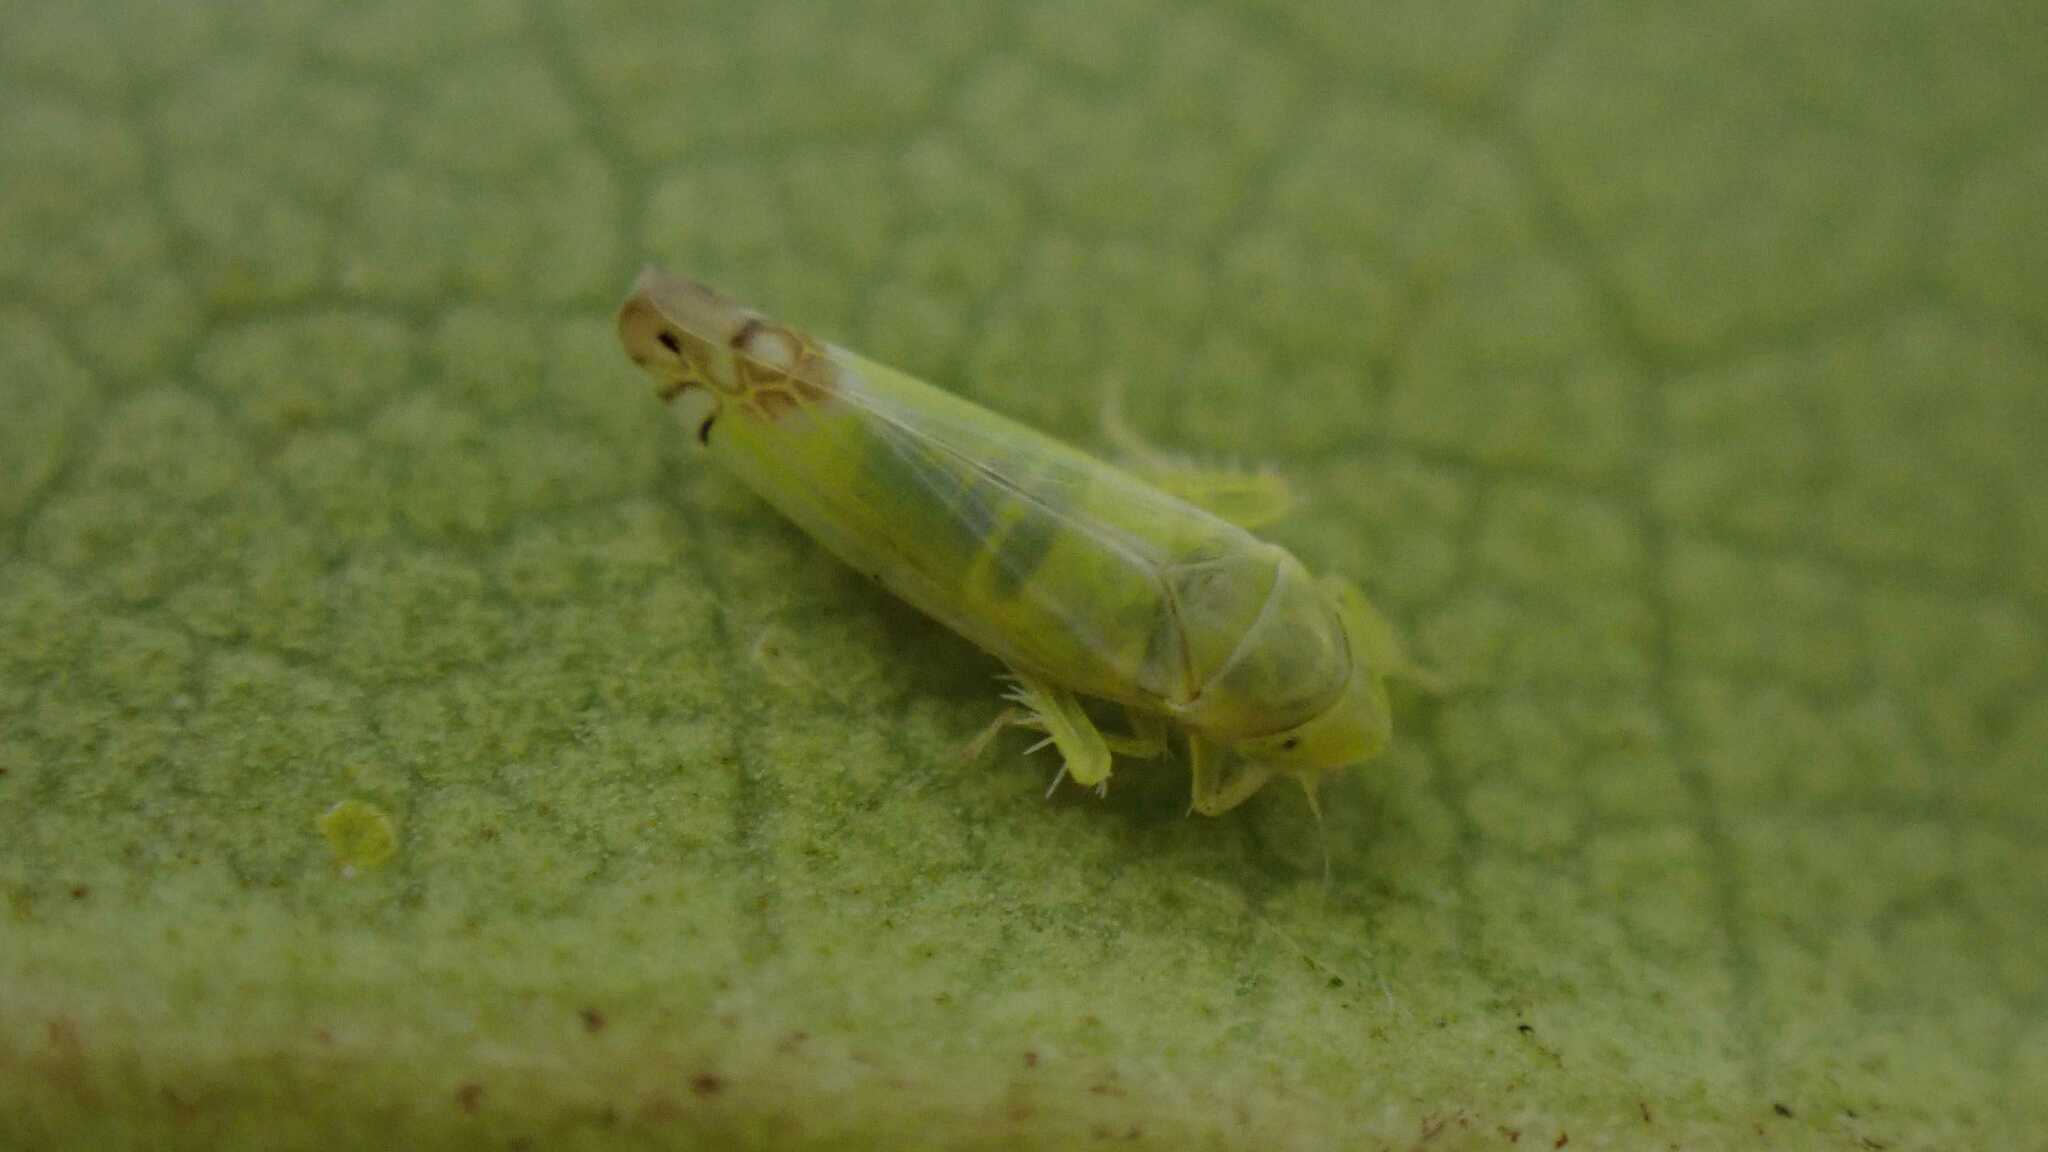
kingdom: Animalia
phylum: Arthropoda
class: Insecta
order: Hemiptera
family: Cicadellidae
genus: Zyginella
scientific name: Zyginella pulchra
